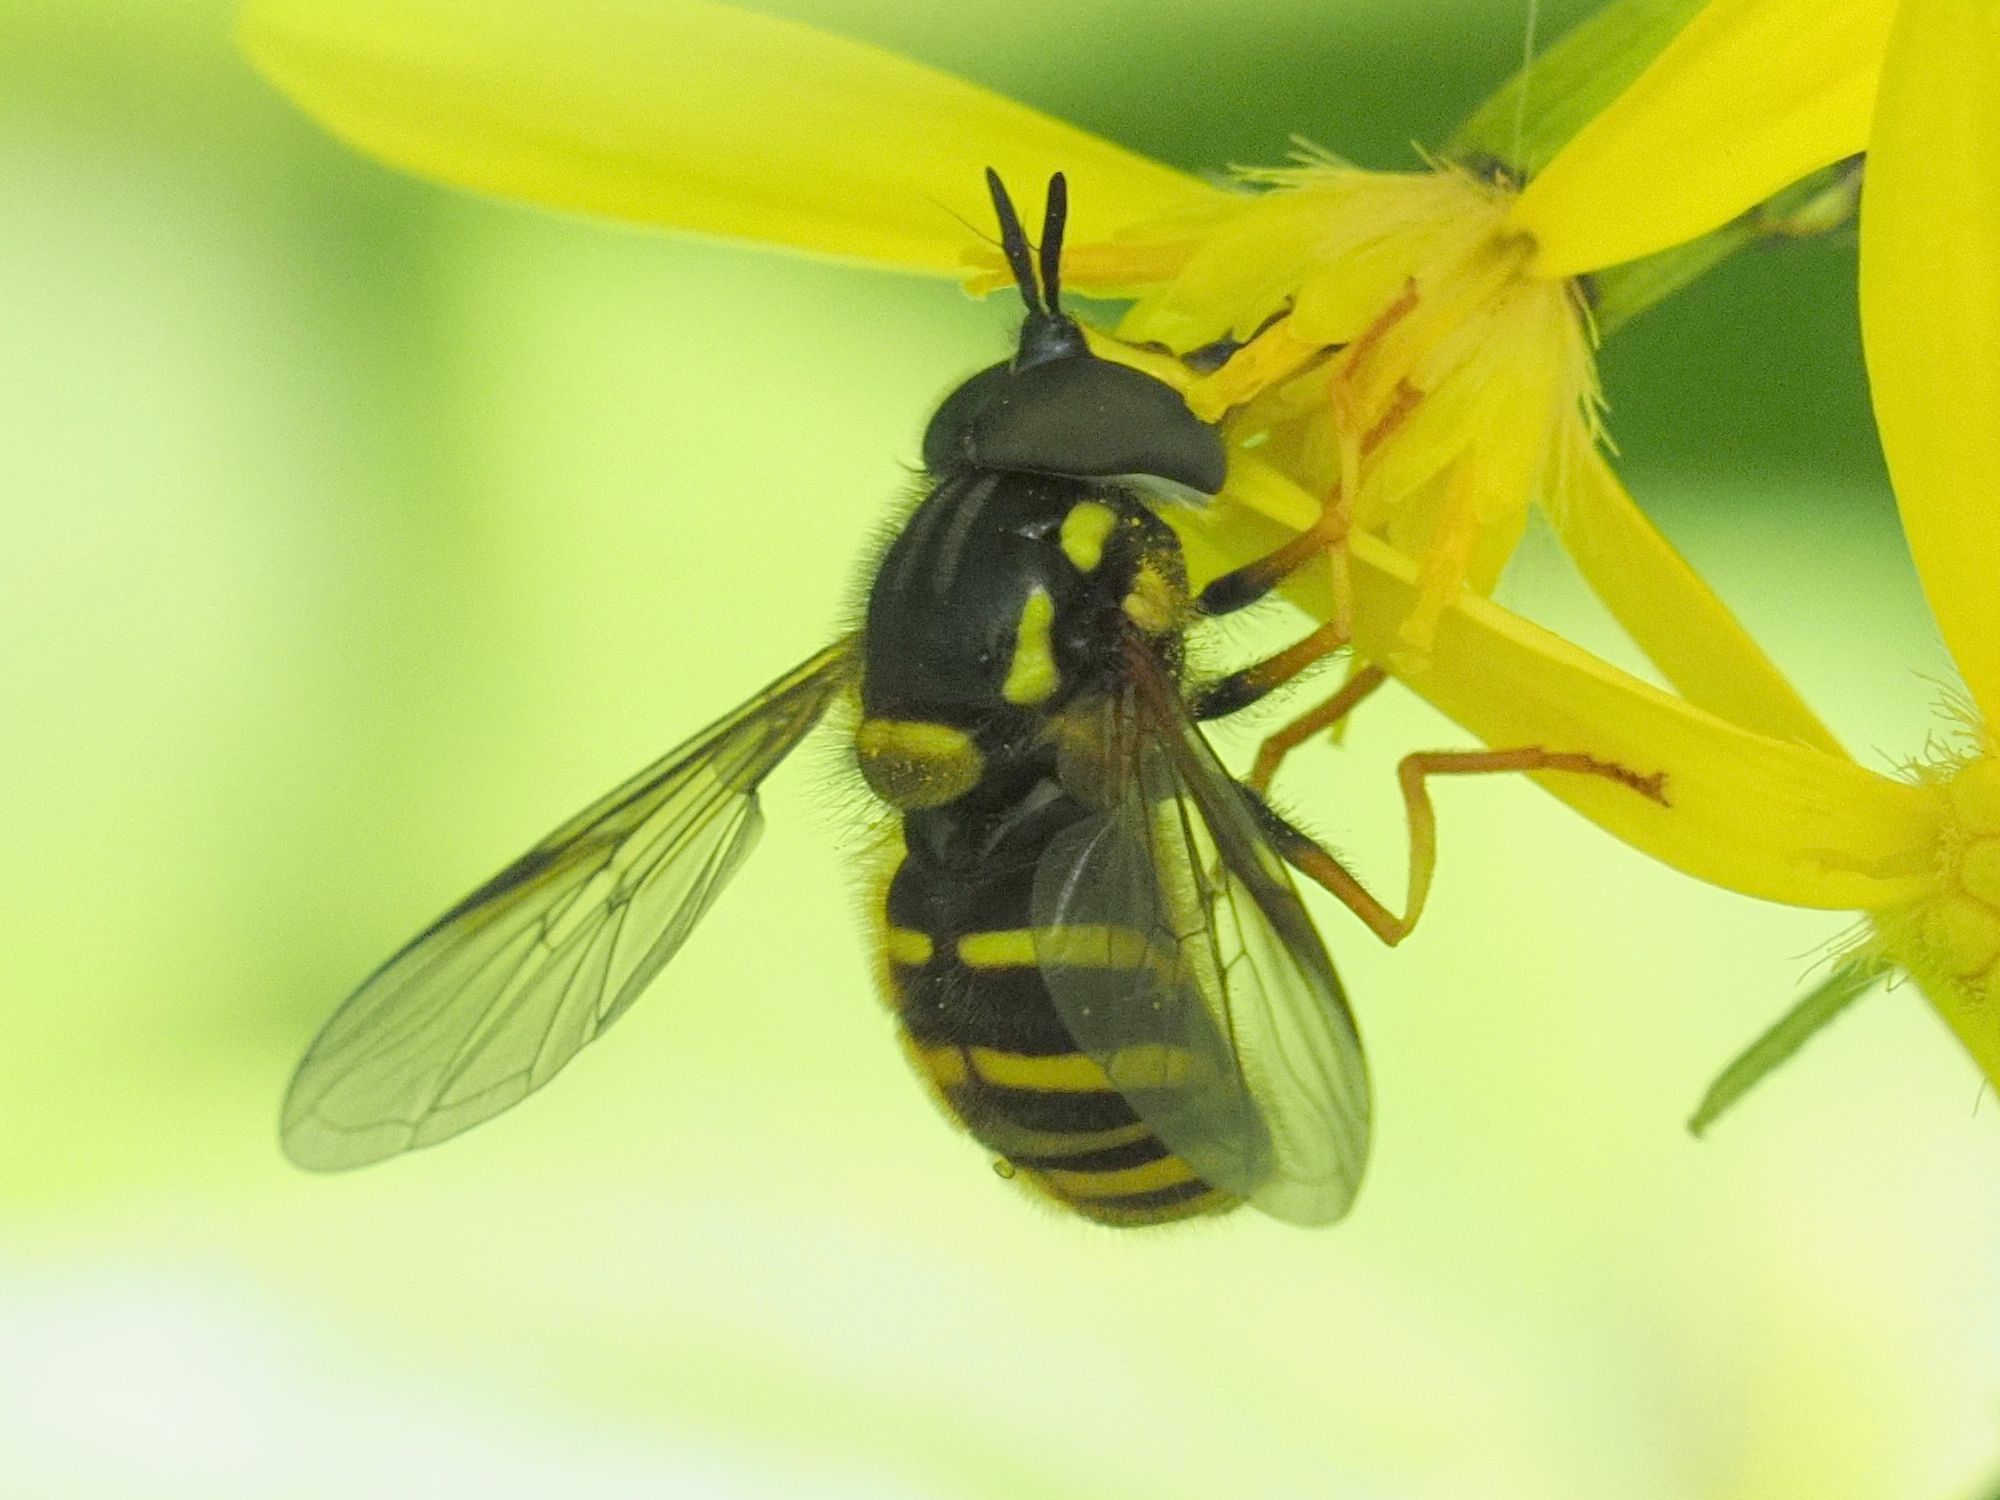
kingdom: Animalia
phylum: Arthropoda
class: Insecta
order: Diptera
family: Syrphidae
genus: Chrysotoxum
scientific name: Chrysotoxum cautum
